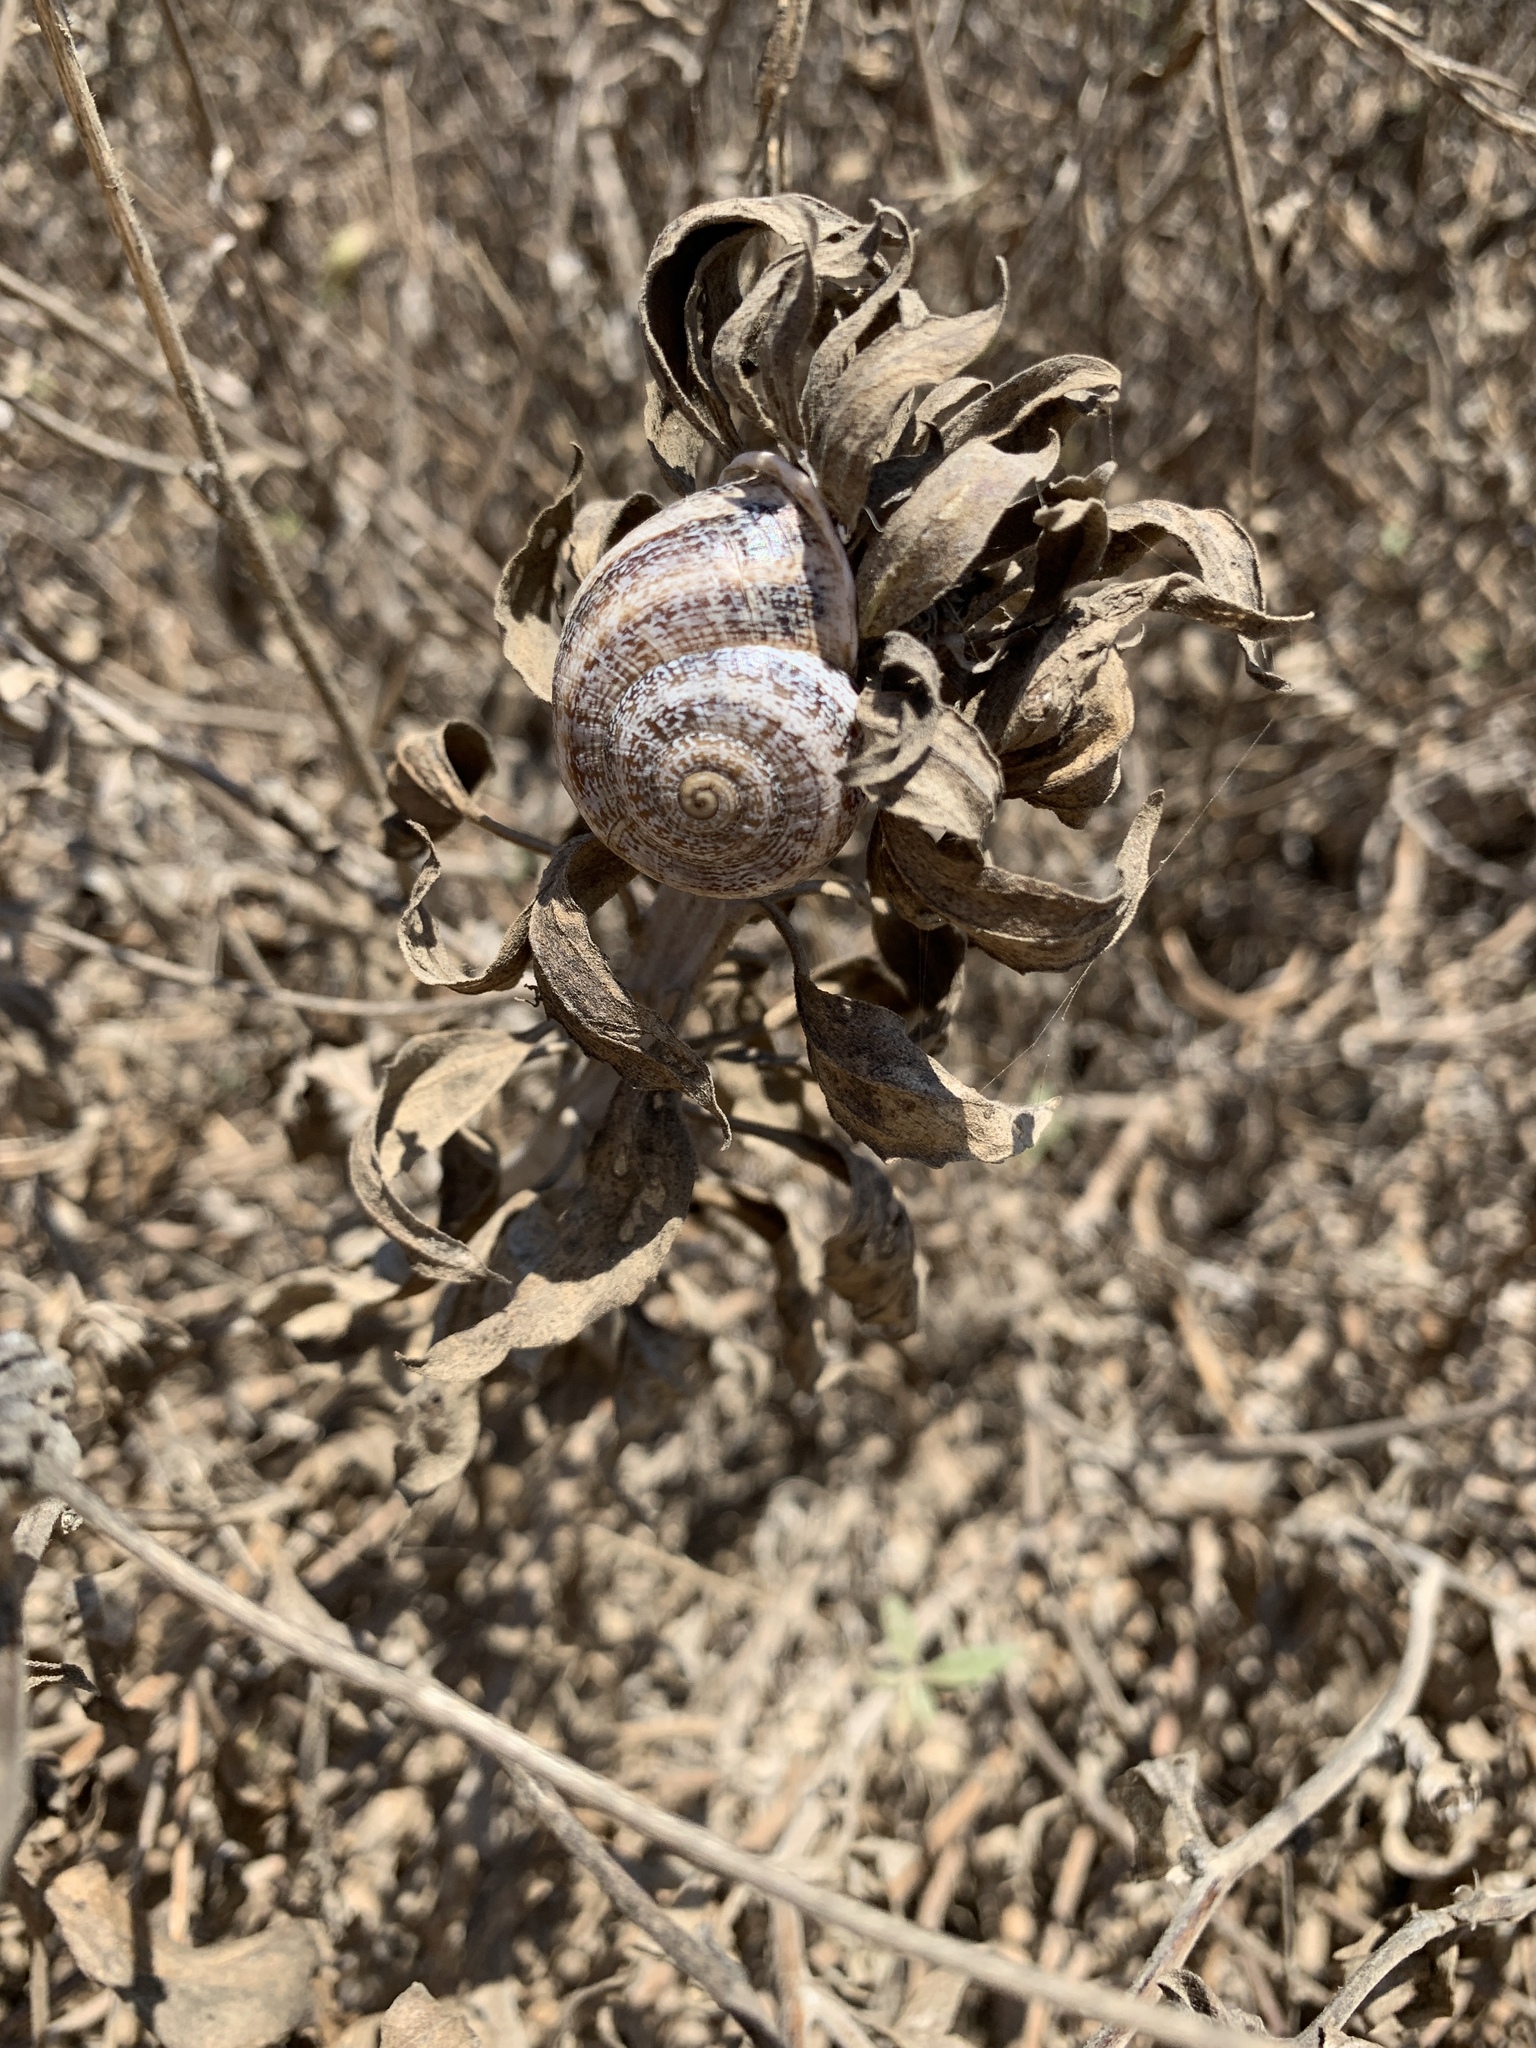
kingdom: Animalia
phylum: Mollusca
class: Gastropoda
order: Stylommatophora
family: Helicidae
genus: Otala
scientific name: Otala lactea
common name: Milk snail
